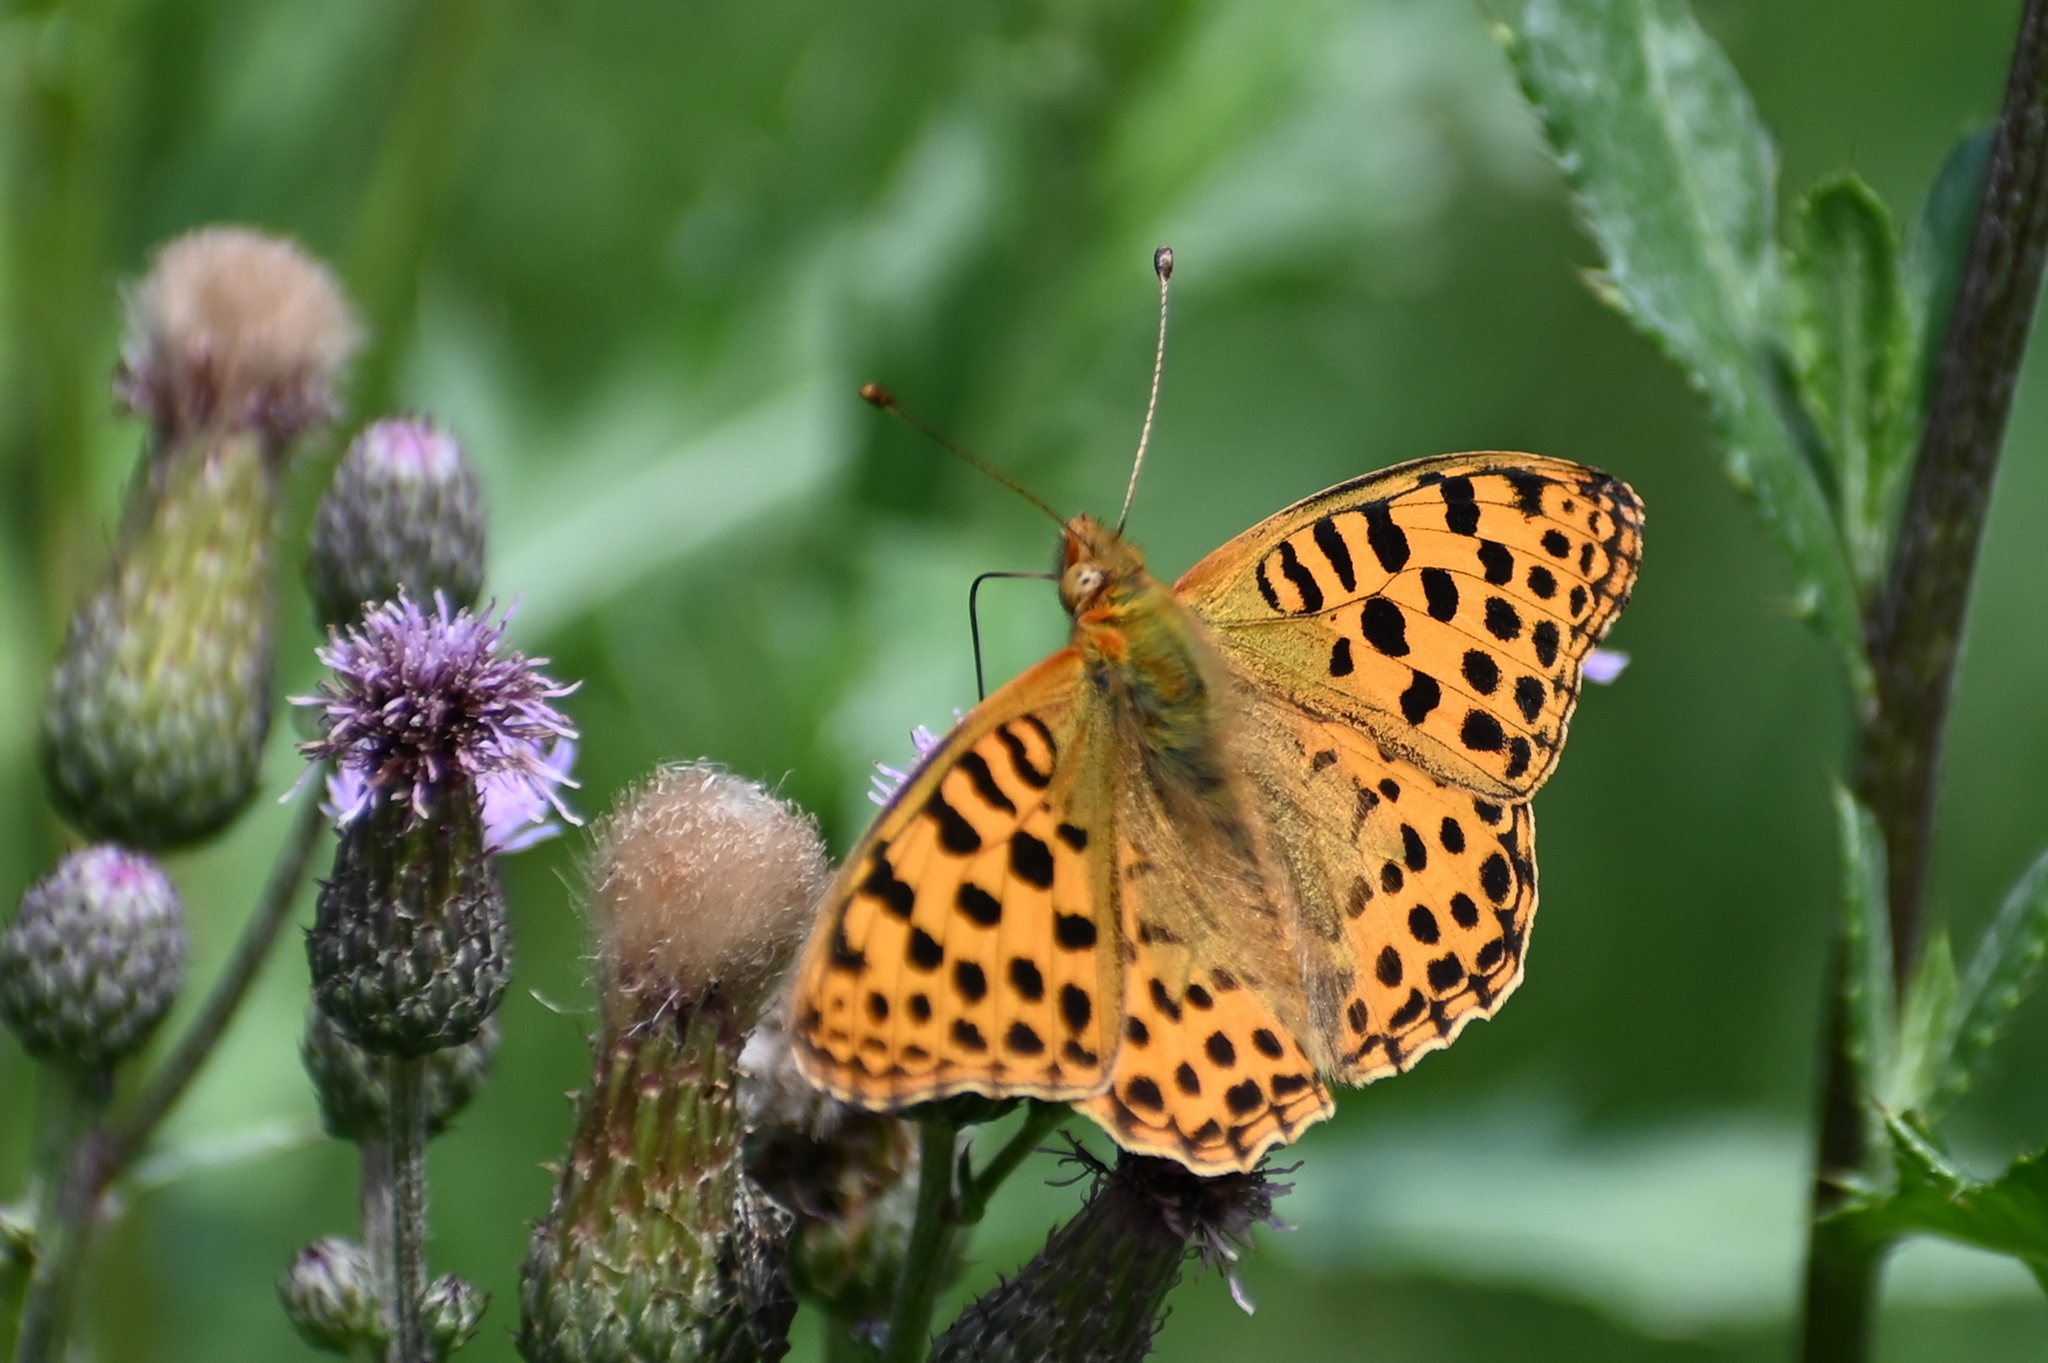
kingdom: Animalia
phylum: Arthropoda
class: Insecta
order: Lepidoptera
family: Nymphalidae
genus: Issoria
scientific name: Issoria lathonia
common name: Queen of spain fritillary
